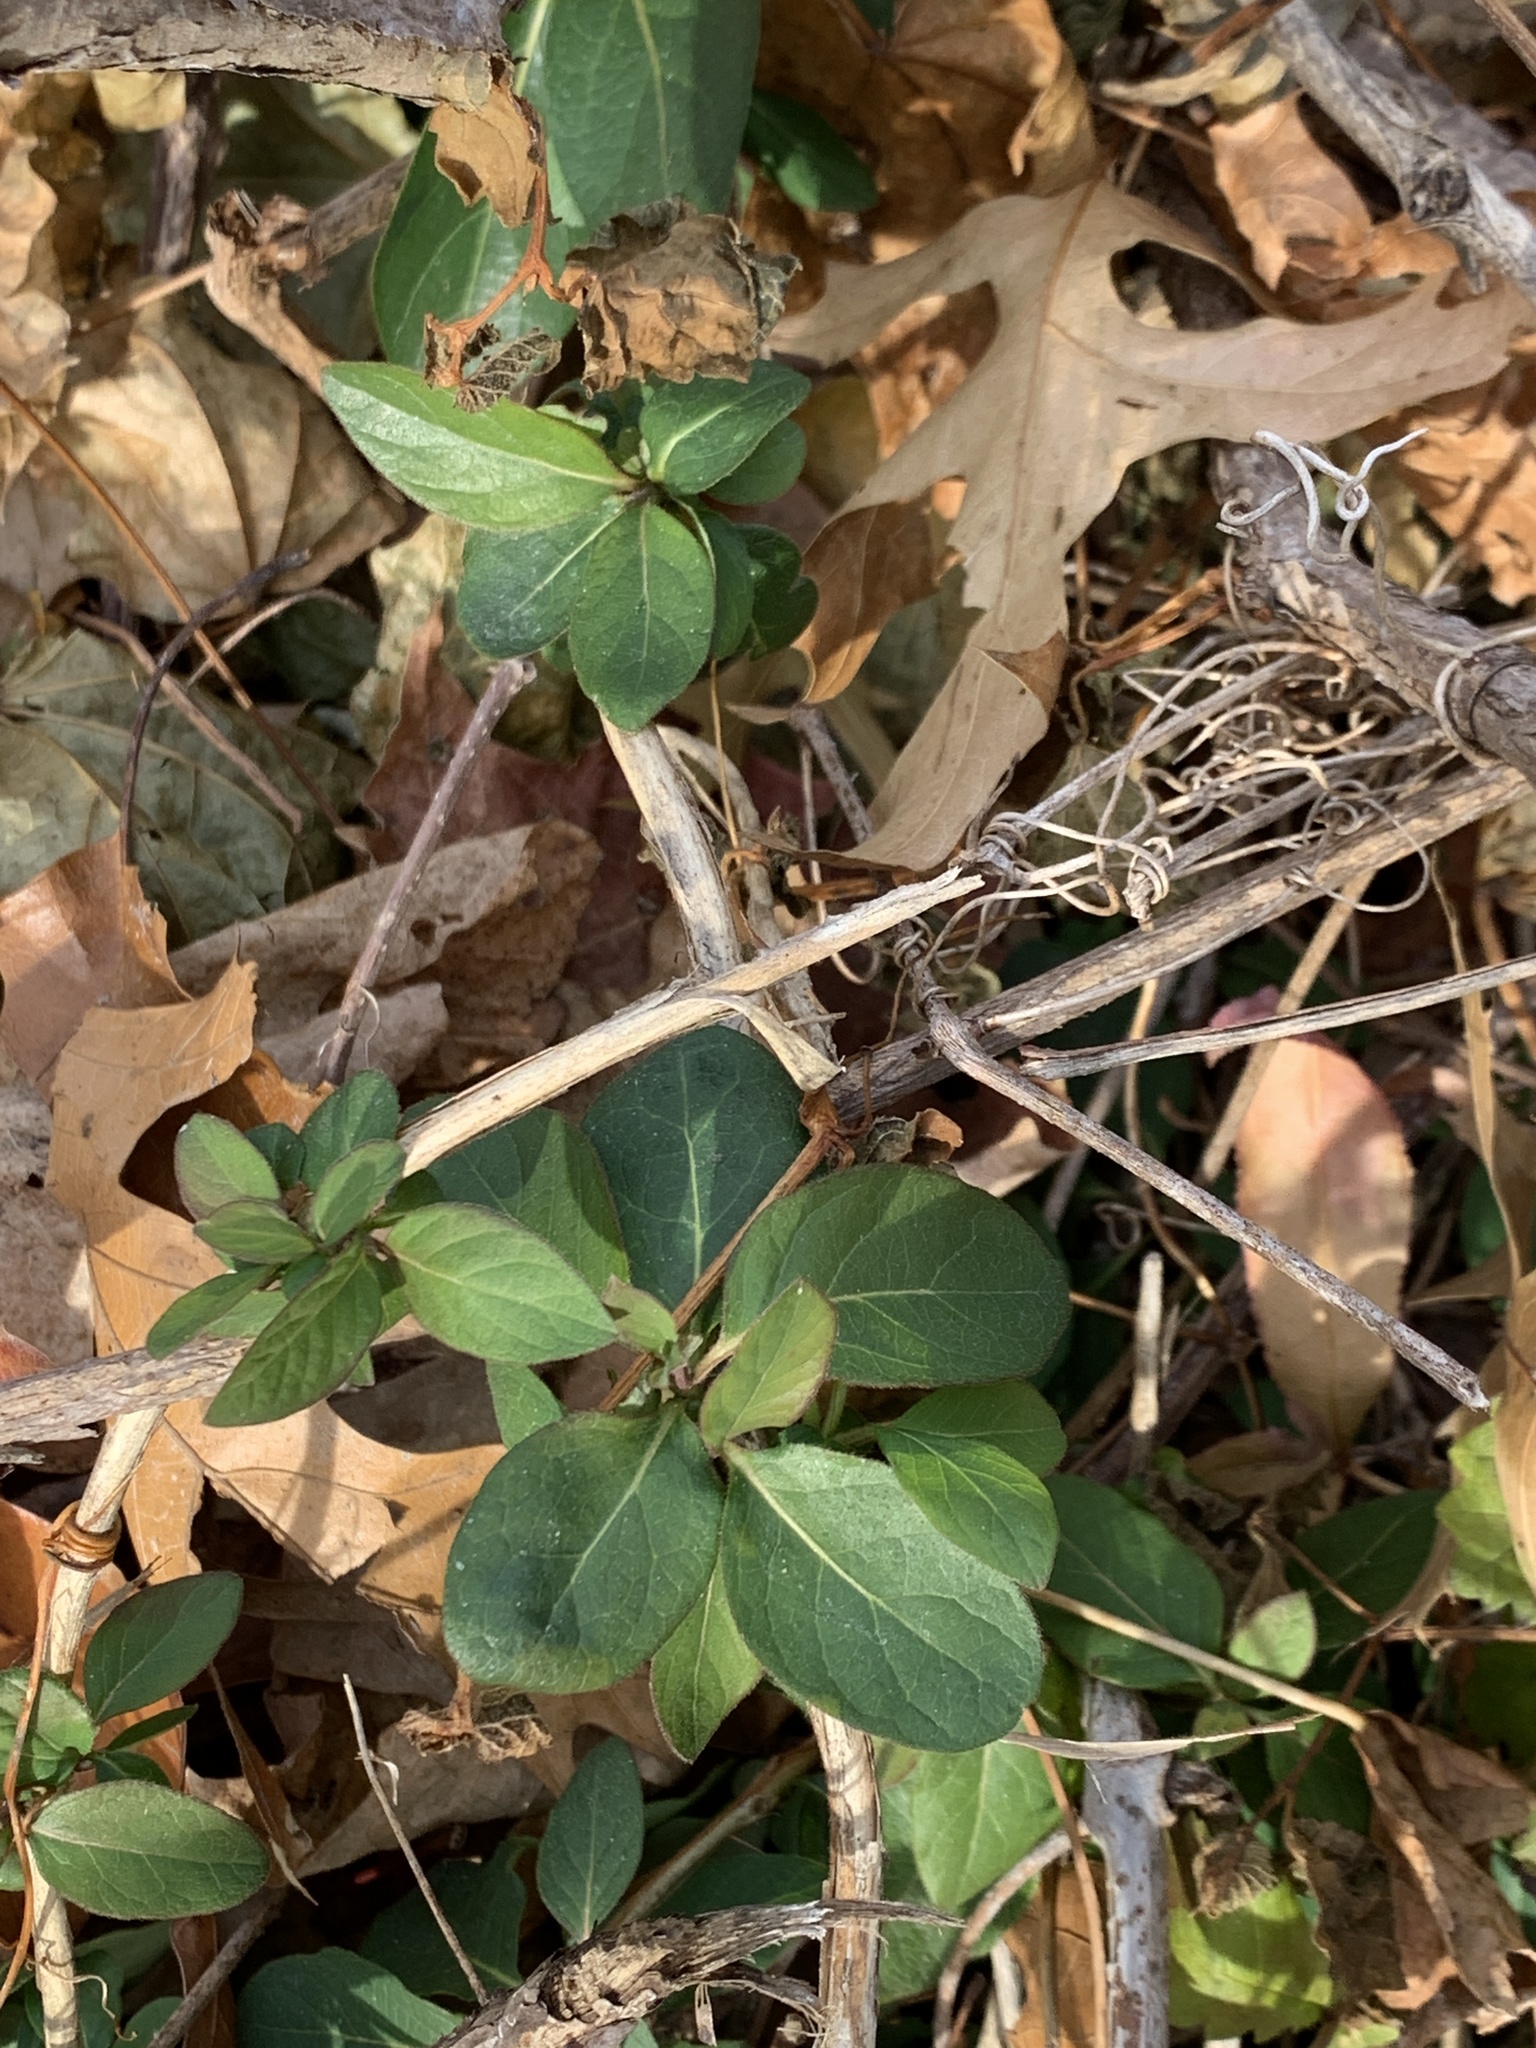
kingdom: Plantae
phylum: Tracheophyta
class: Magnoliopsida
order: Dipsacales
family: Caprifoliaceae
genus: Lonicera
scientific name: Lonicera japonica
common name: Japanese honeysuckle
